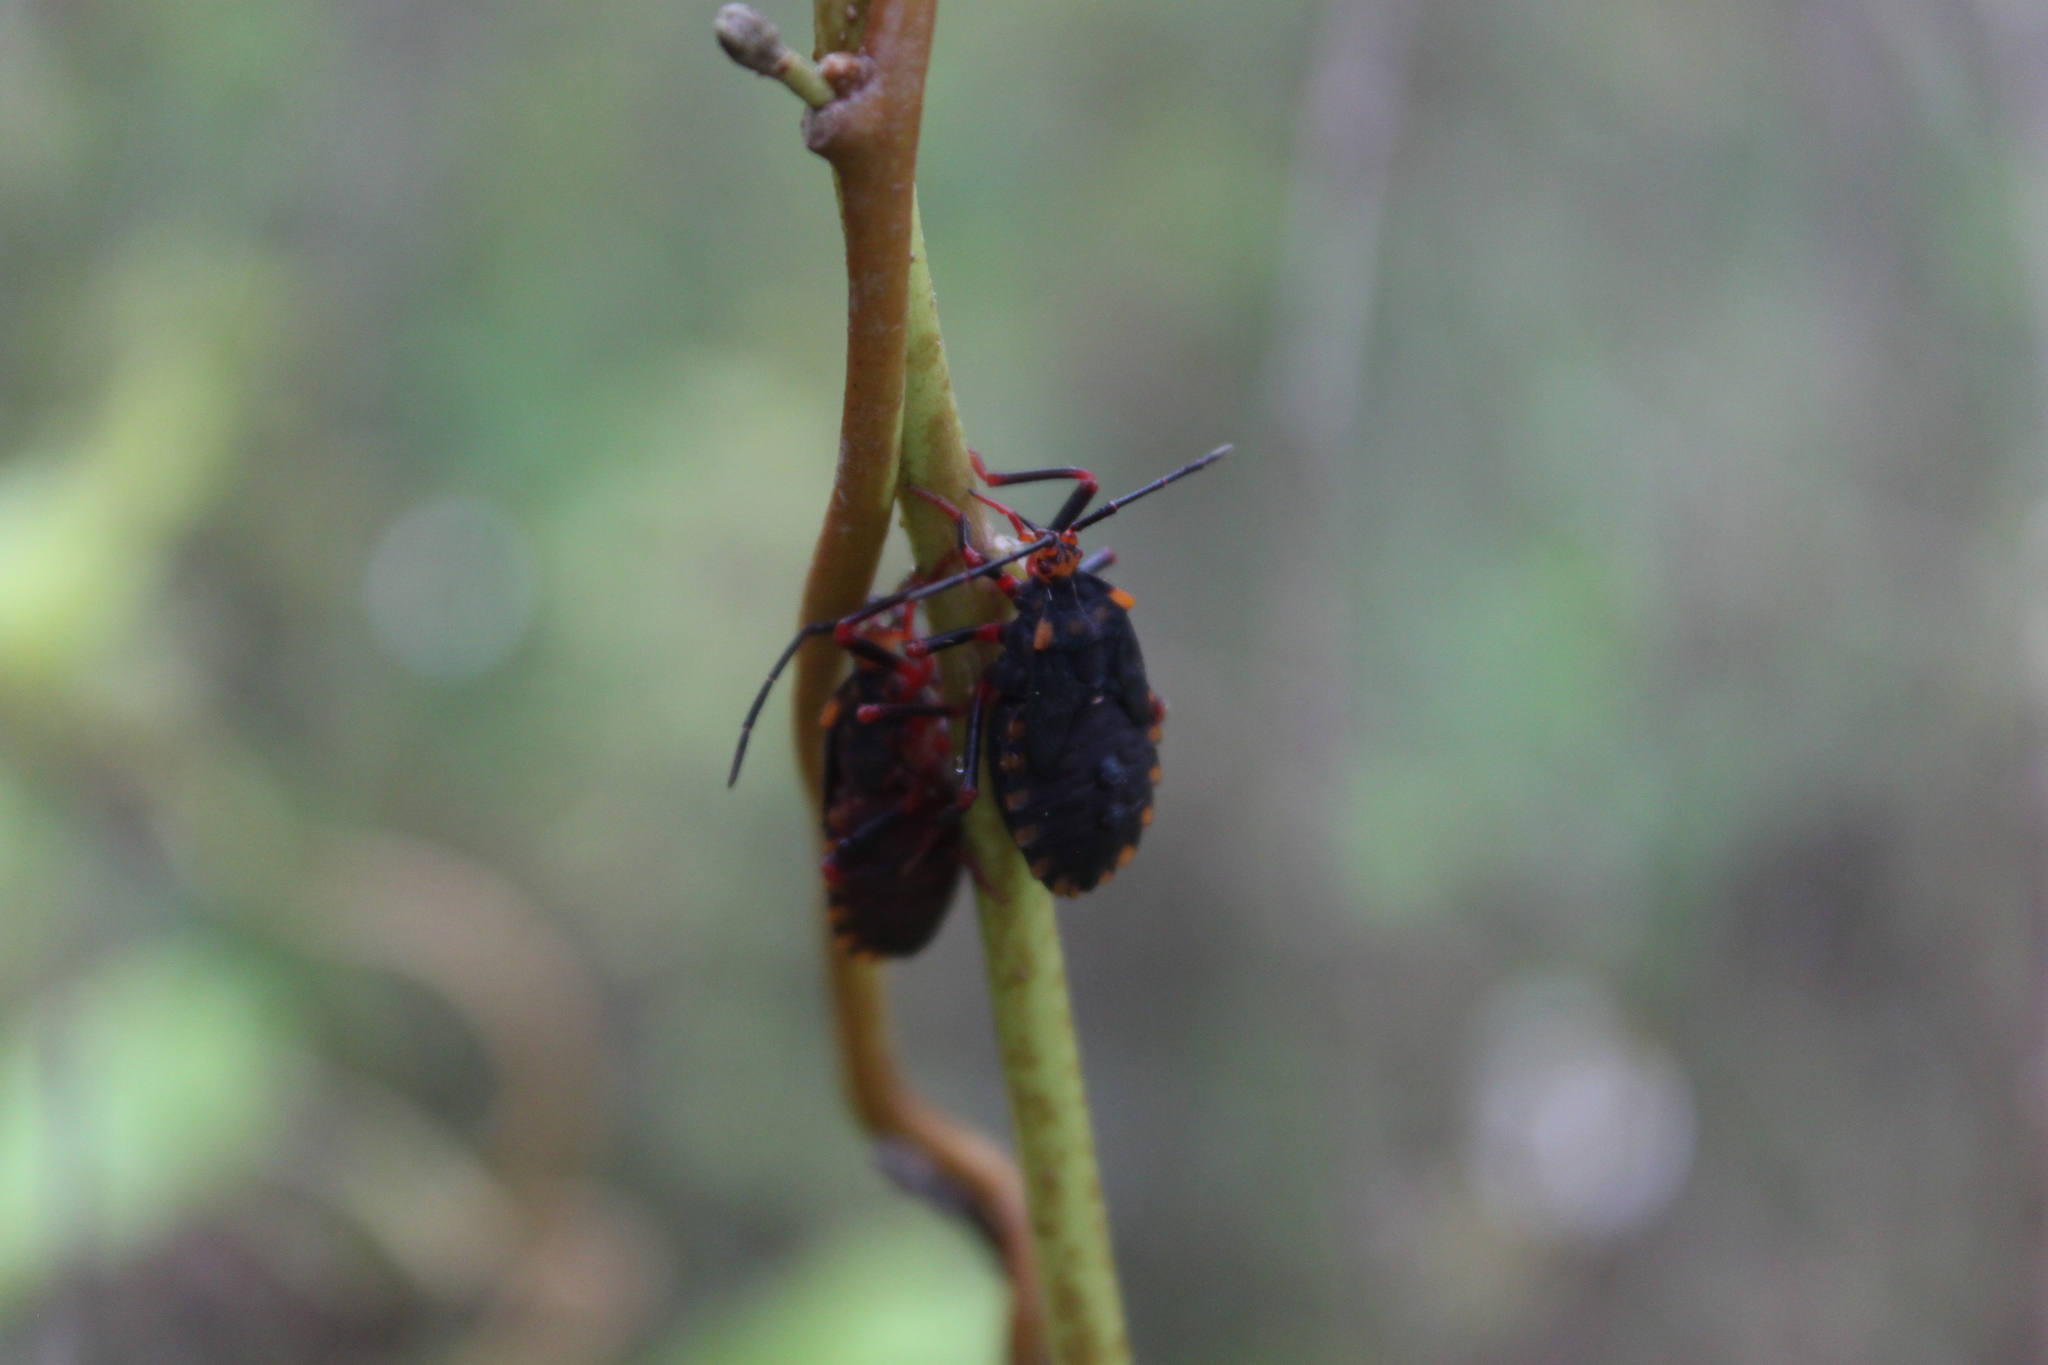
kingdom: Animalia
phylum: Arthropoda
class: Insecta
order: Hemiptera
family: Coreidae
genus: Spartocera
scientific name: Spartocera batatas
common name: Giant sweetpotato bug
